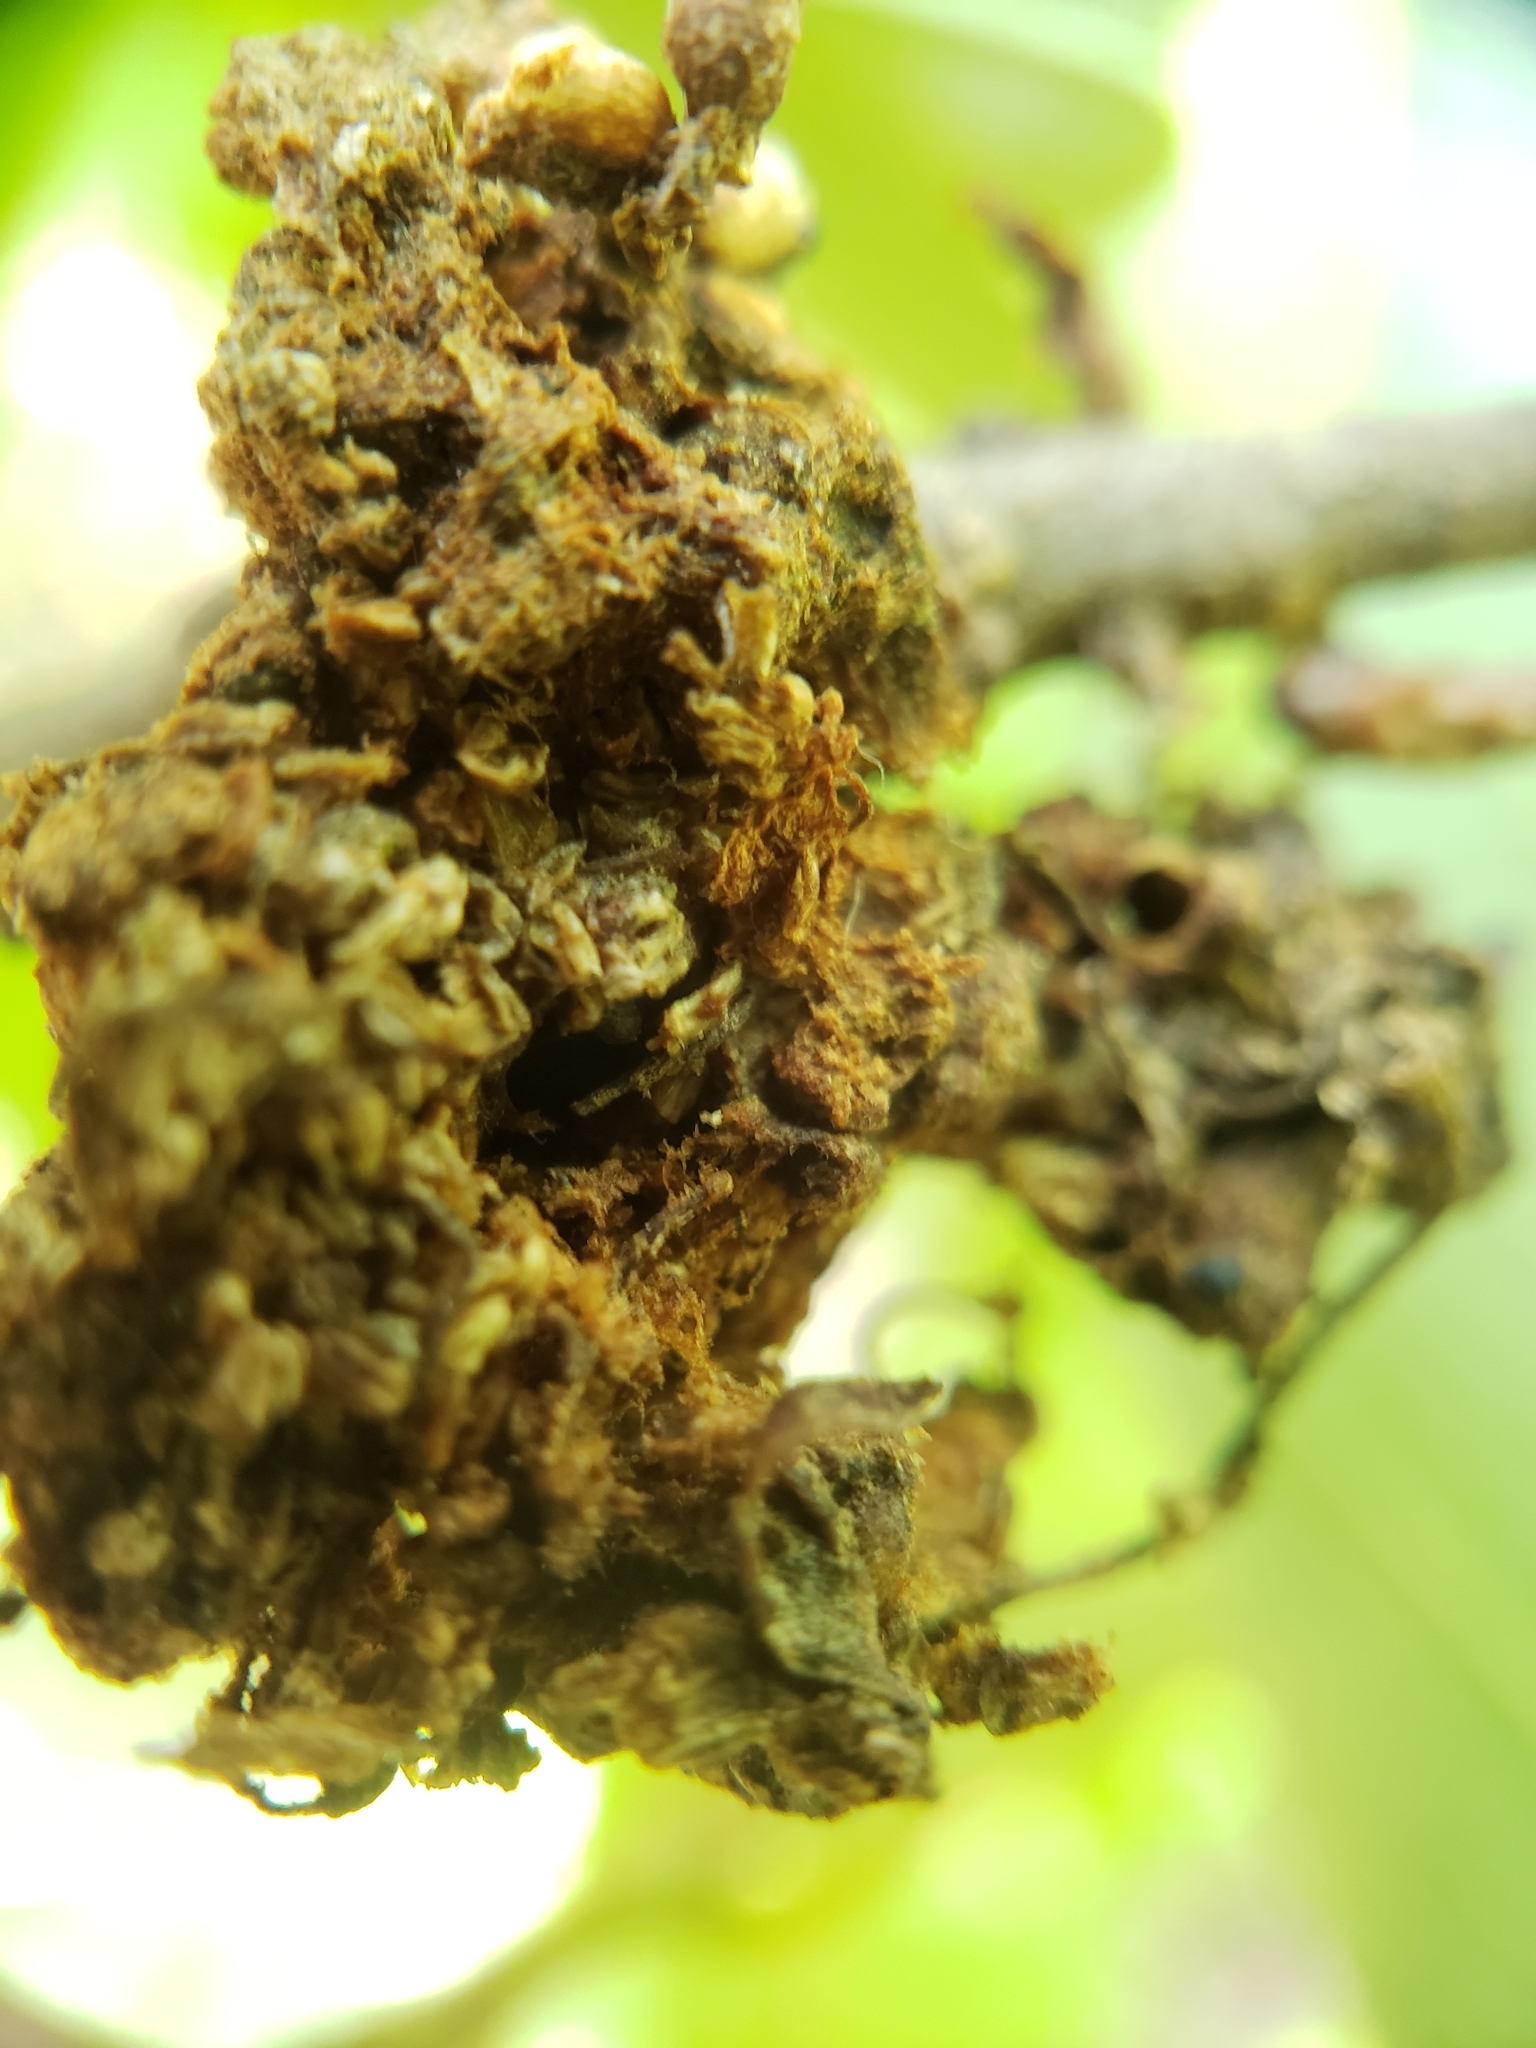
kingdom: Animalia
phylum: Arthropoda
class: Insecta
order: Hymenoptera
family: Cynipidae
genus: Callirhytis
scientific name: Callirhytis
